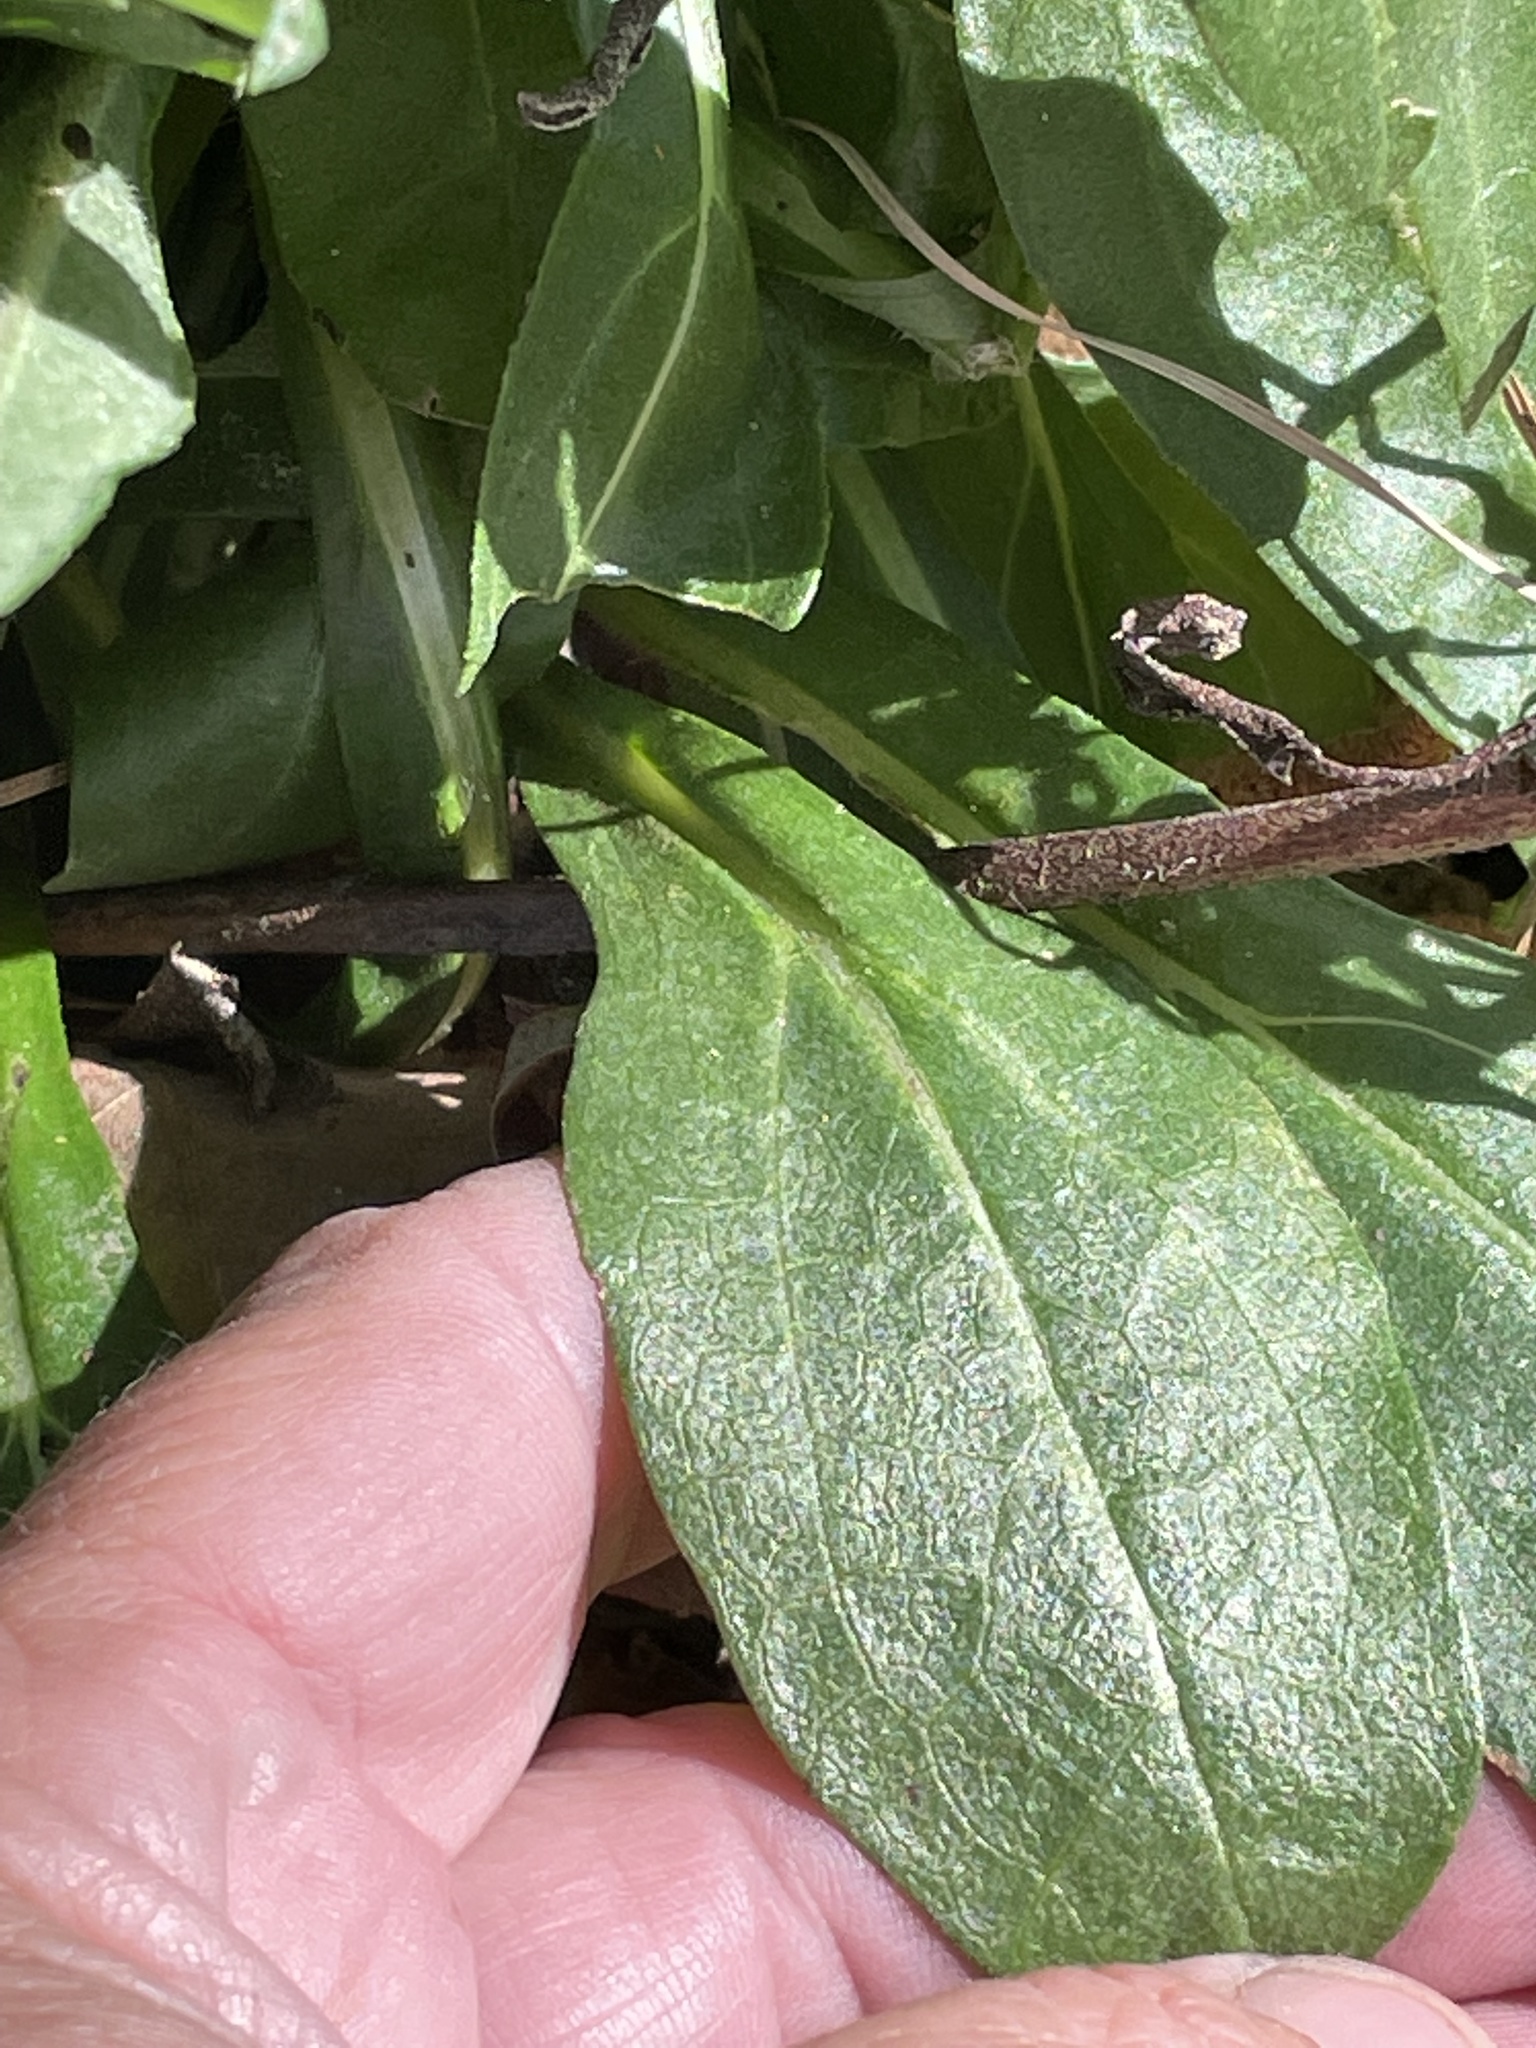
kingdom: Plantae
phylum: Tracheophyta
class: Magnoliopsida
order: Asterales
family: Asteraceae
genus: Helianthus
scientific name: Helianthus simulans
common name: Muck sunflower
